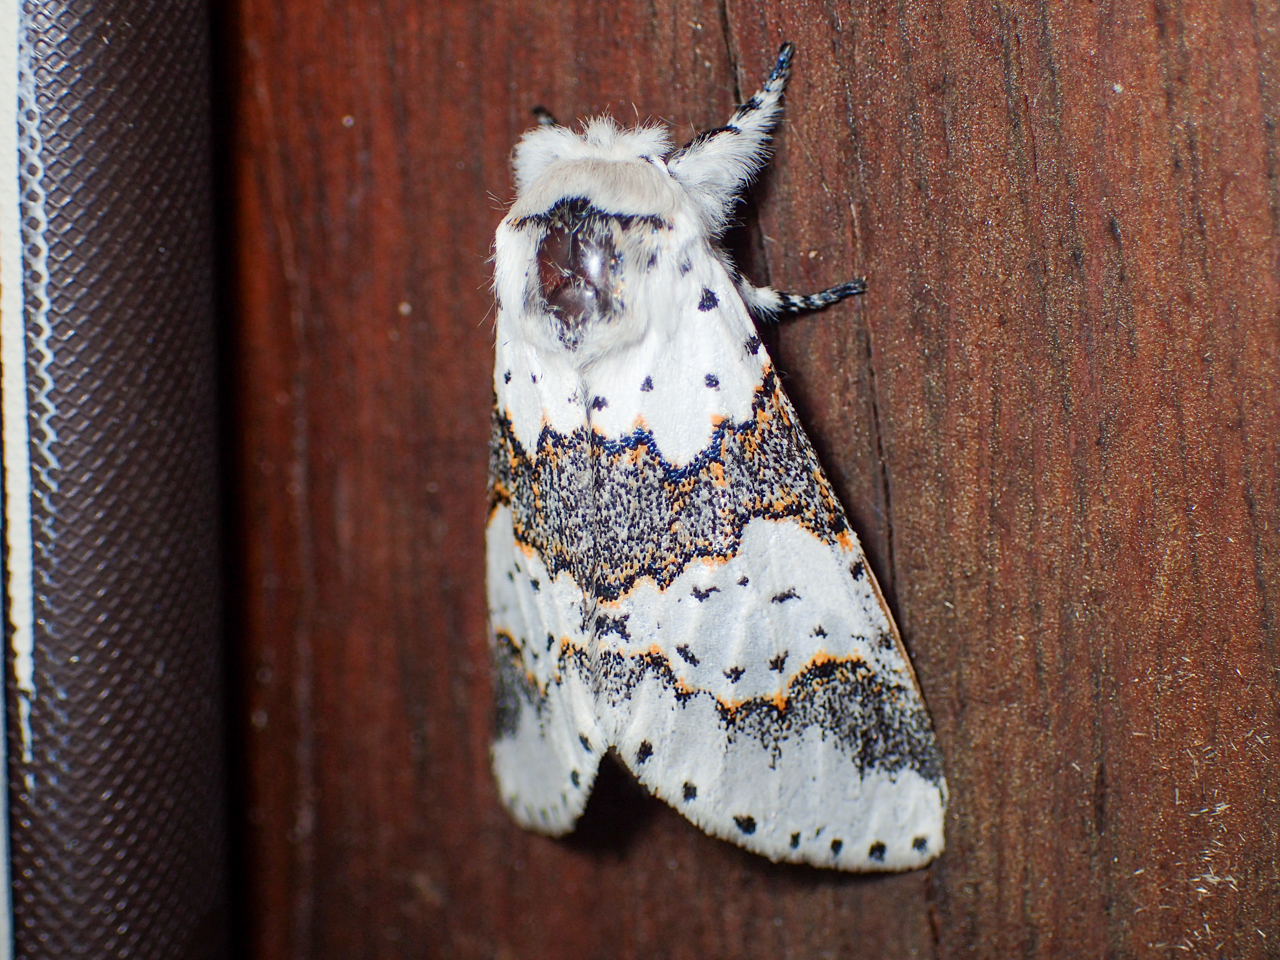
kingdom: Animalia
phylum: Arthropoda
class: Insecta
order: Lepidoptera
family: Notodontidae
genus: Furcula
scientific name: Furcula borealis
